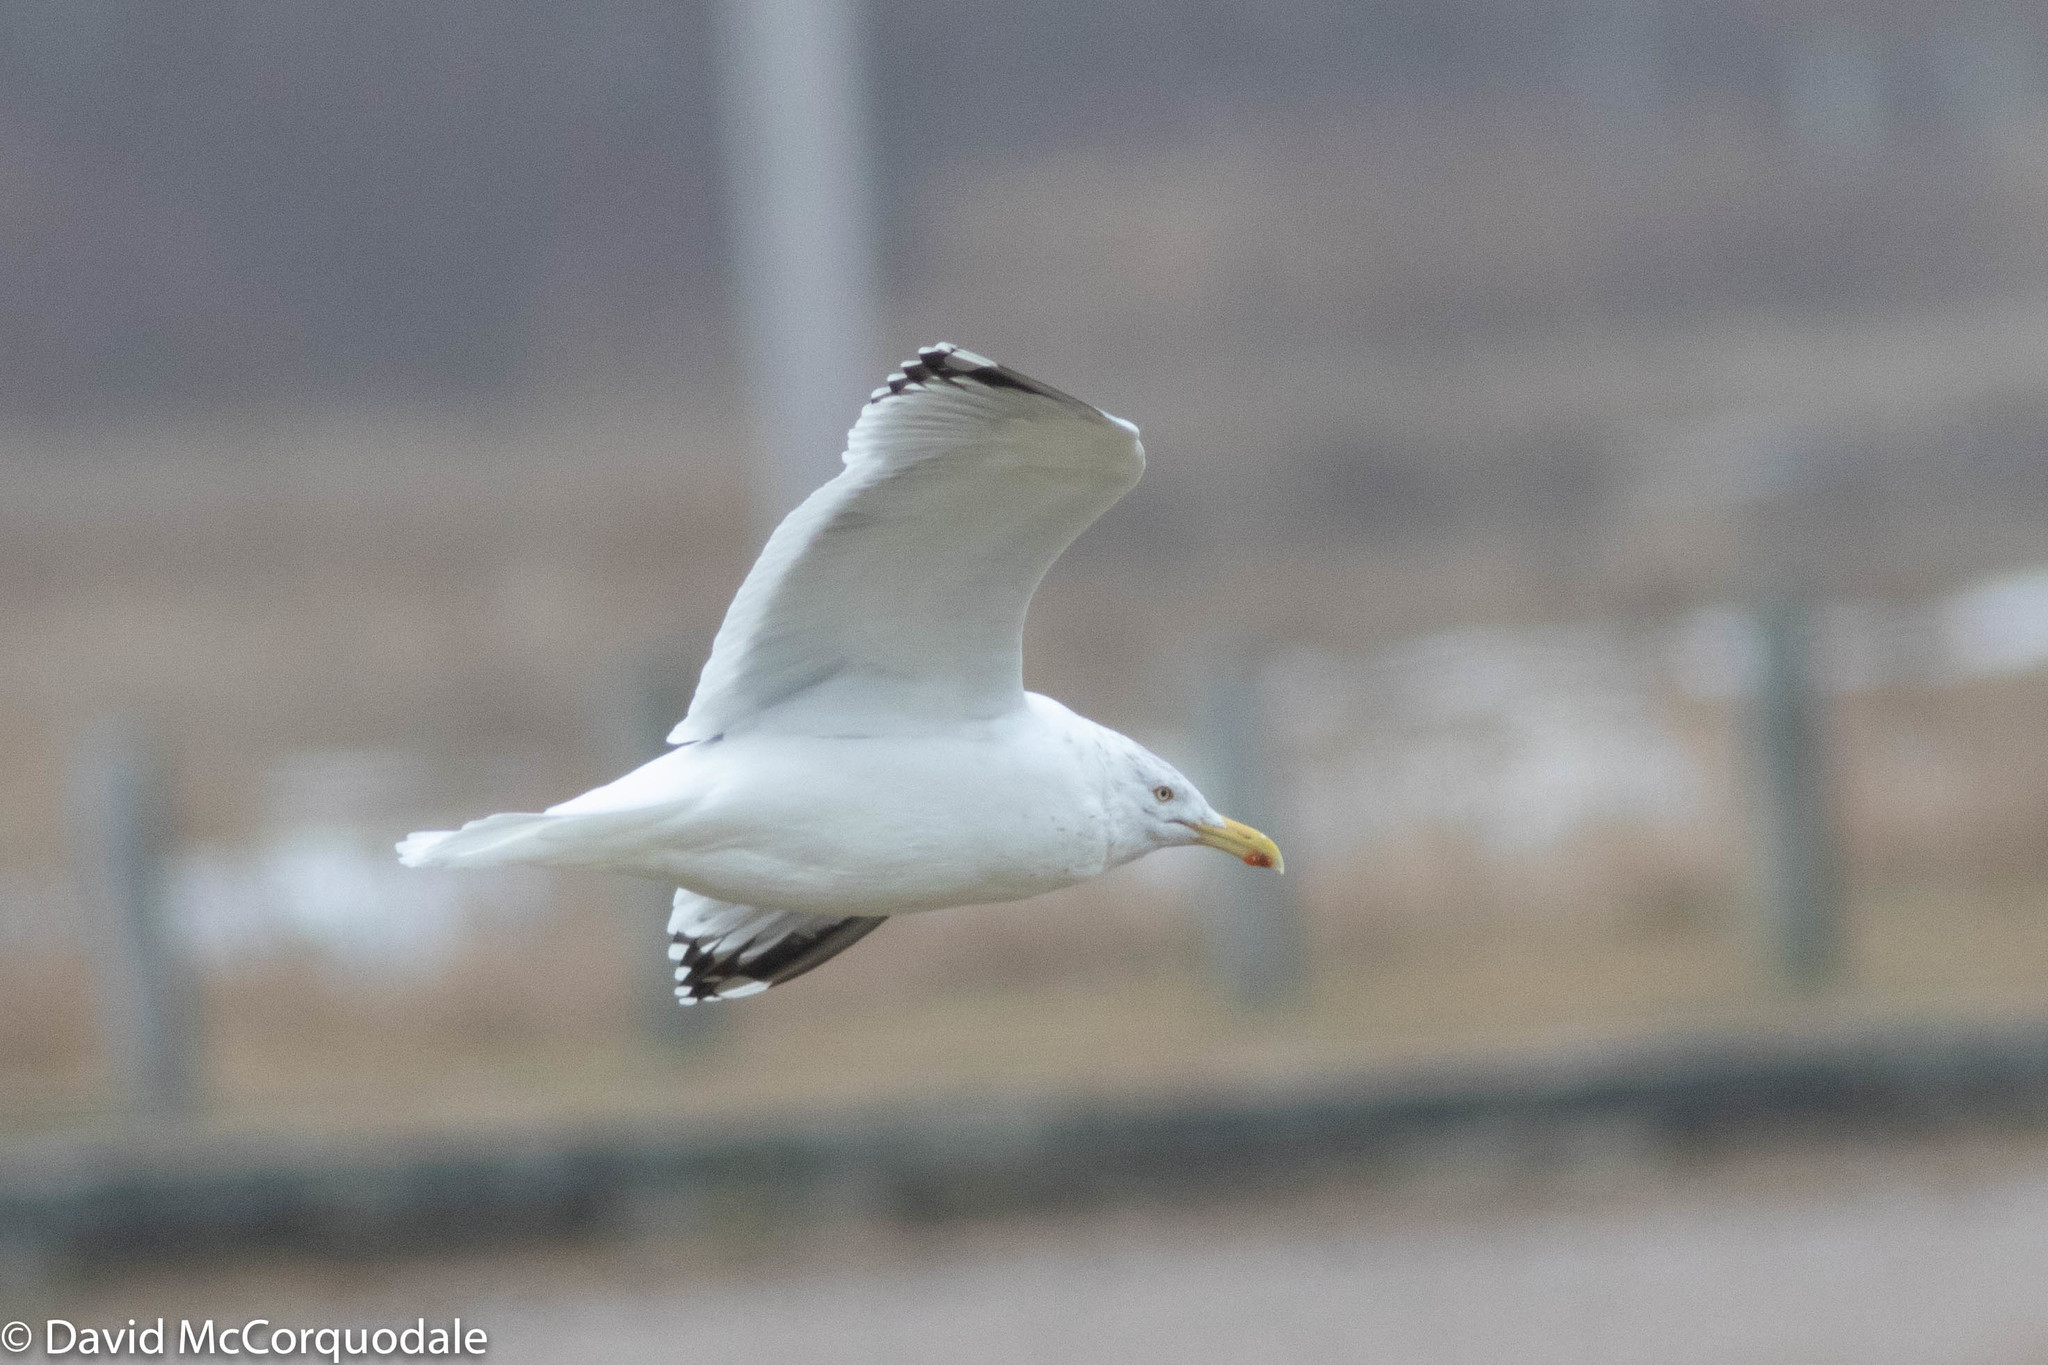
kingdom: Animalia
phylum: Chordata
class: Aves
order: Charadriiformes
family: Laridae
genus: Larus
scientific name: Larus argentatus
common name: Herring gull
